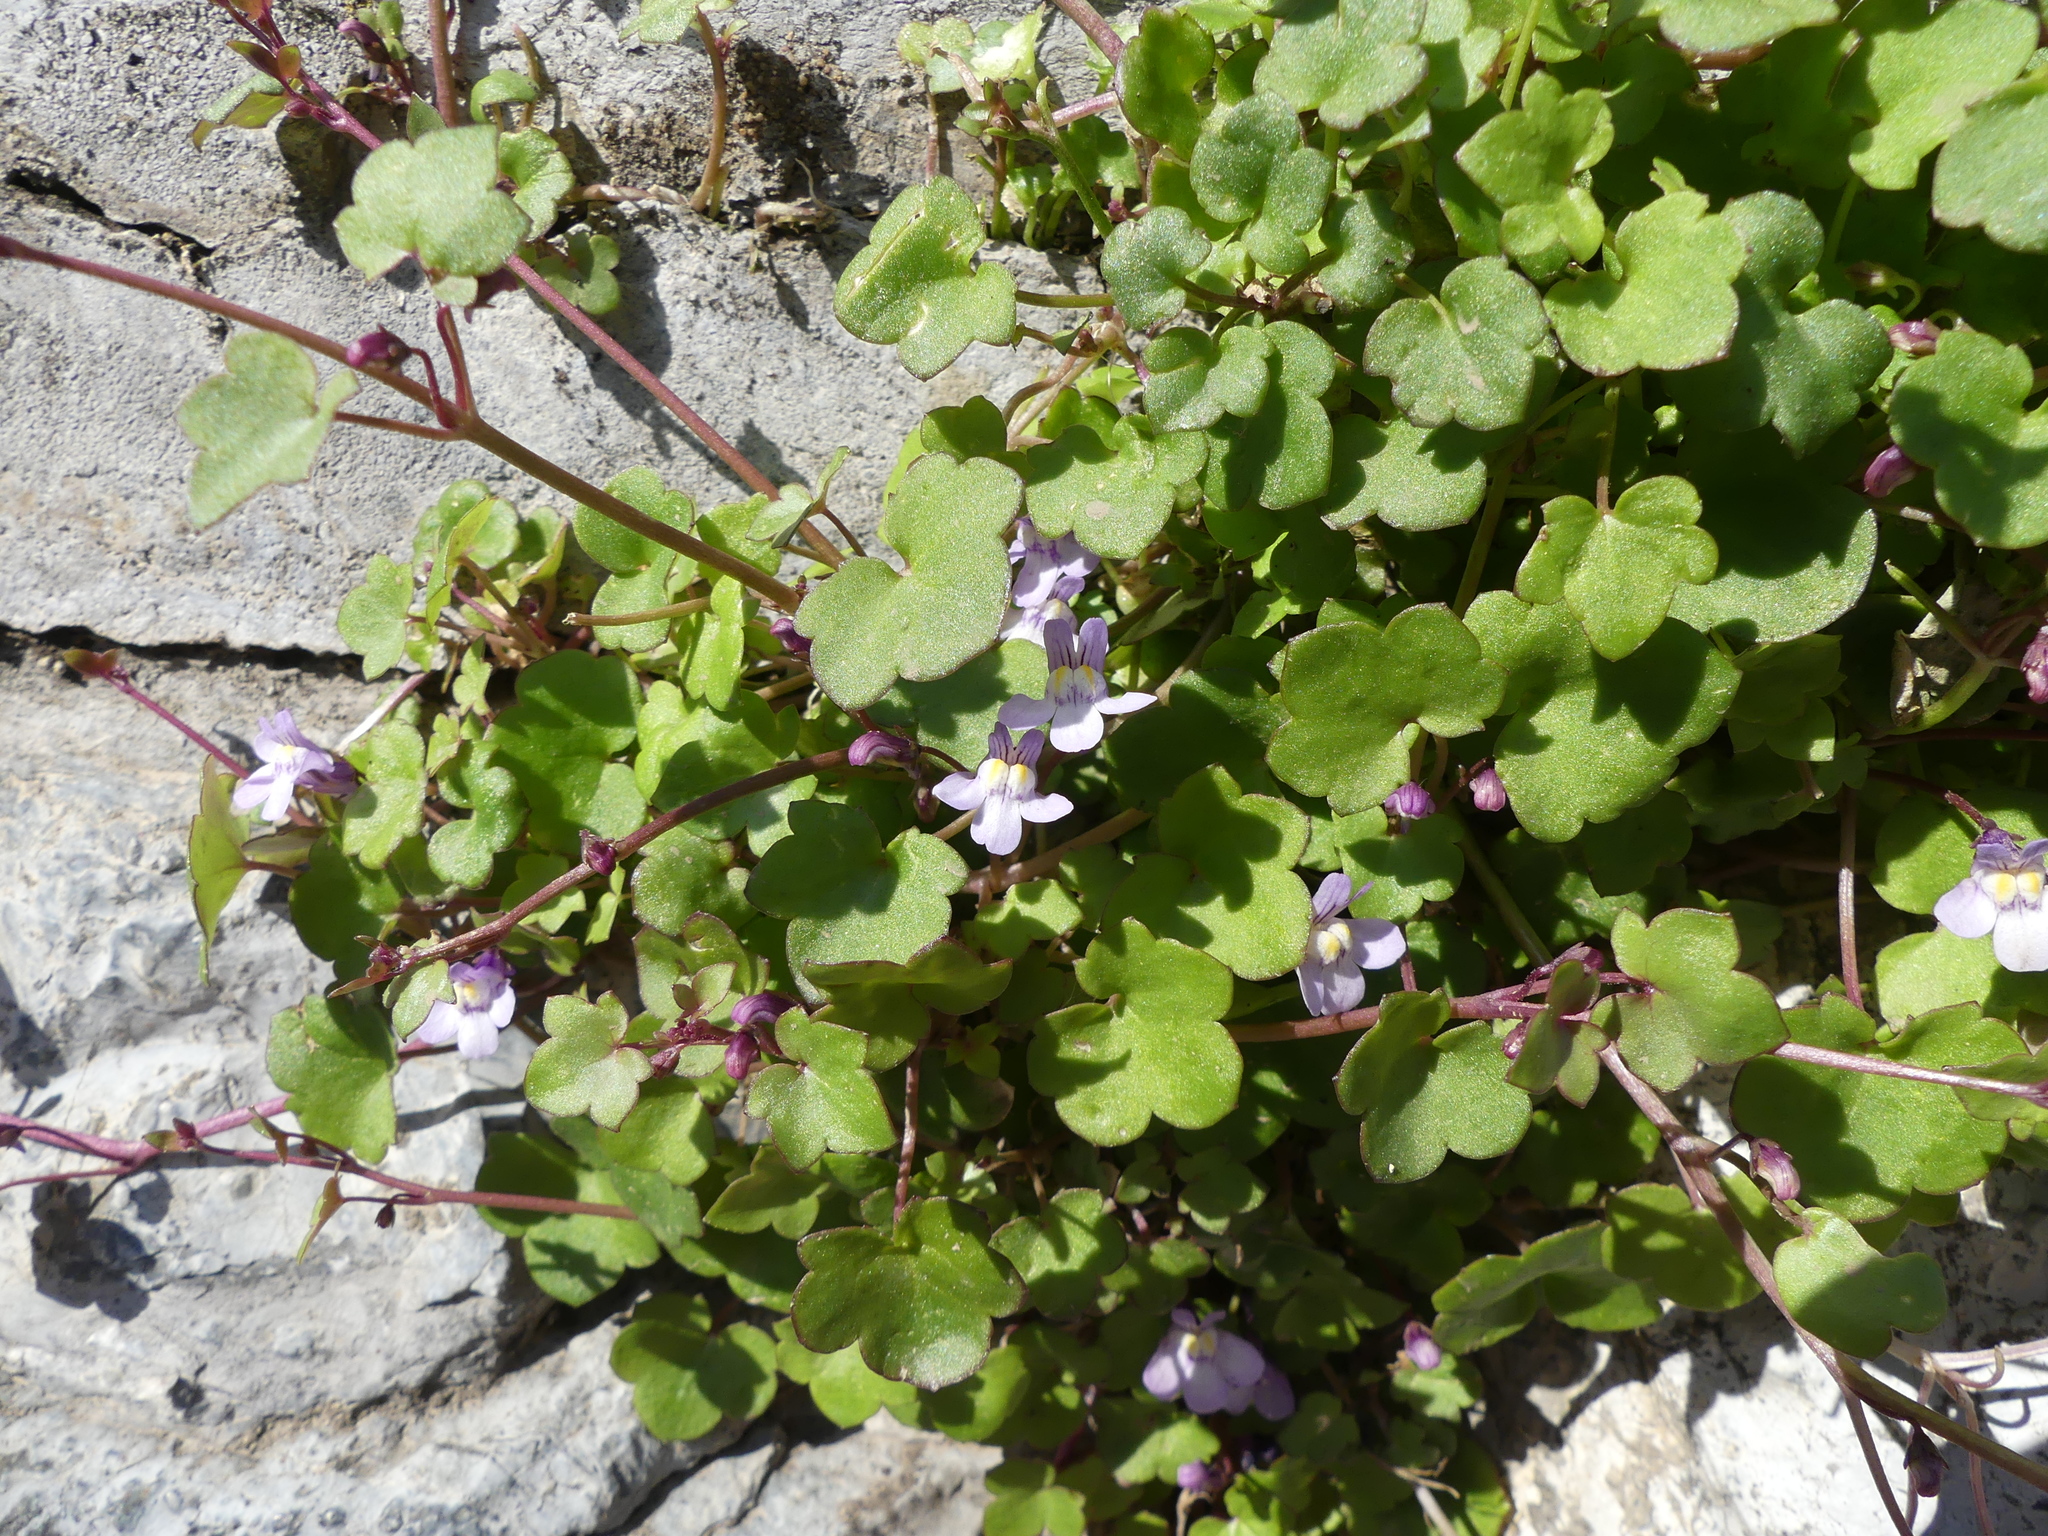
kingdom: Plantae
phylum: Tracheophyta
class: Magnoliopsida
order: Lamiales
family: Plantaginaceae
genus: Cymbalaria
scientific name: Cymbalaria muralis
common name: Ivy-leaved toadflax
